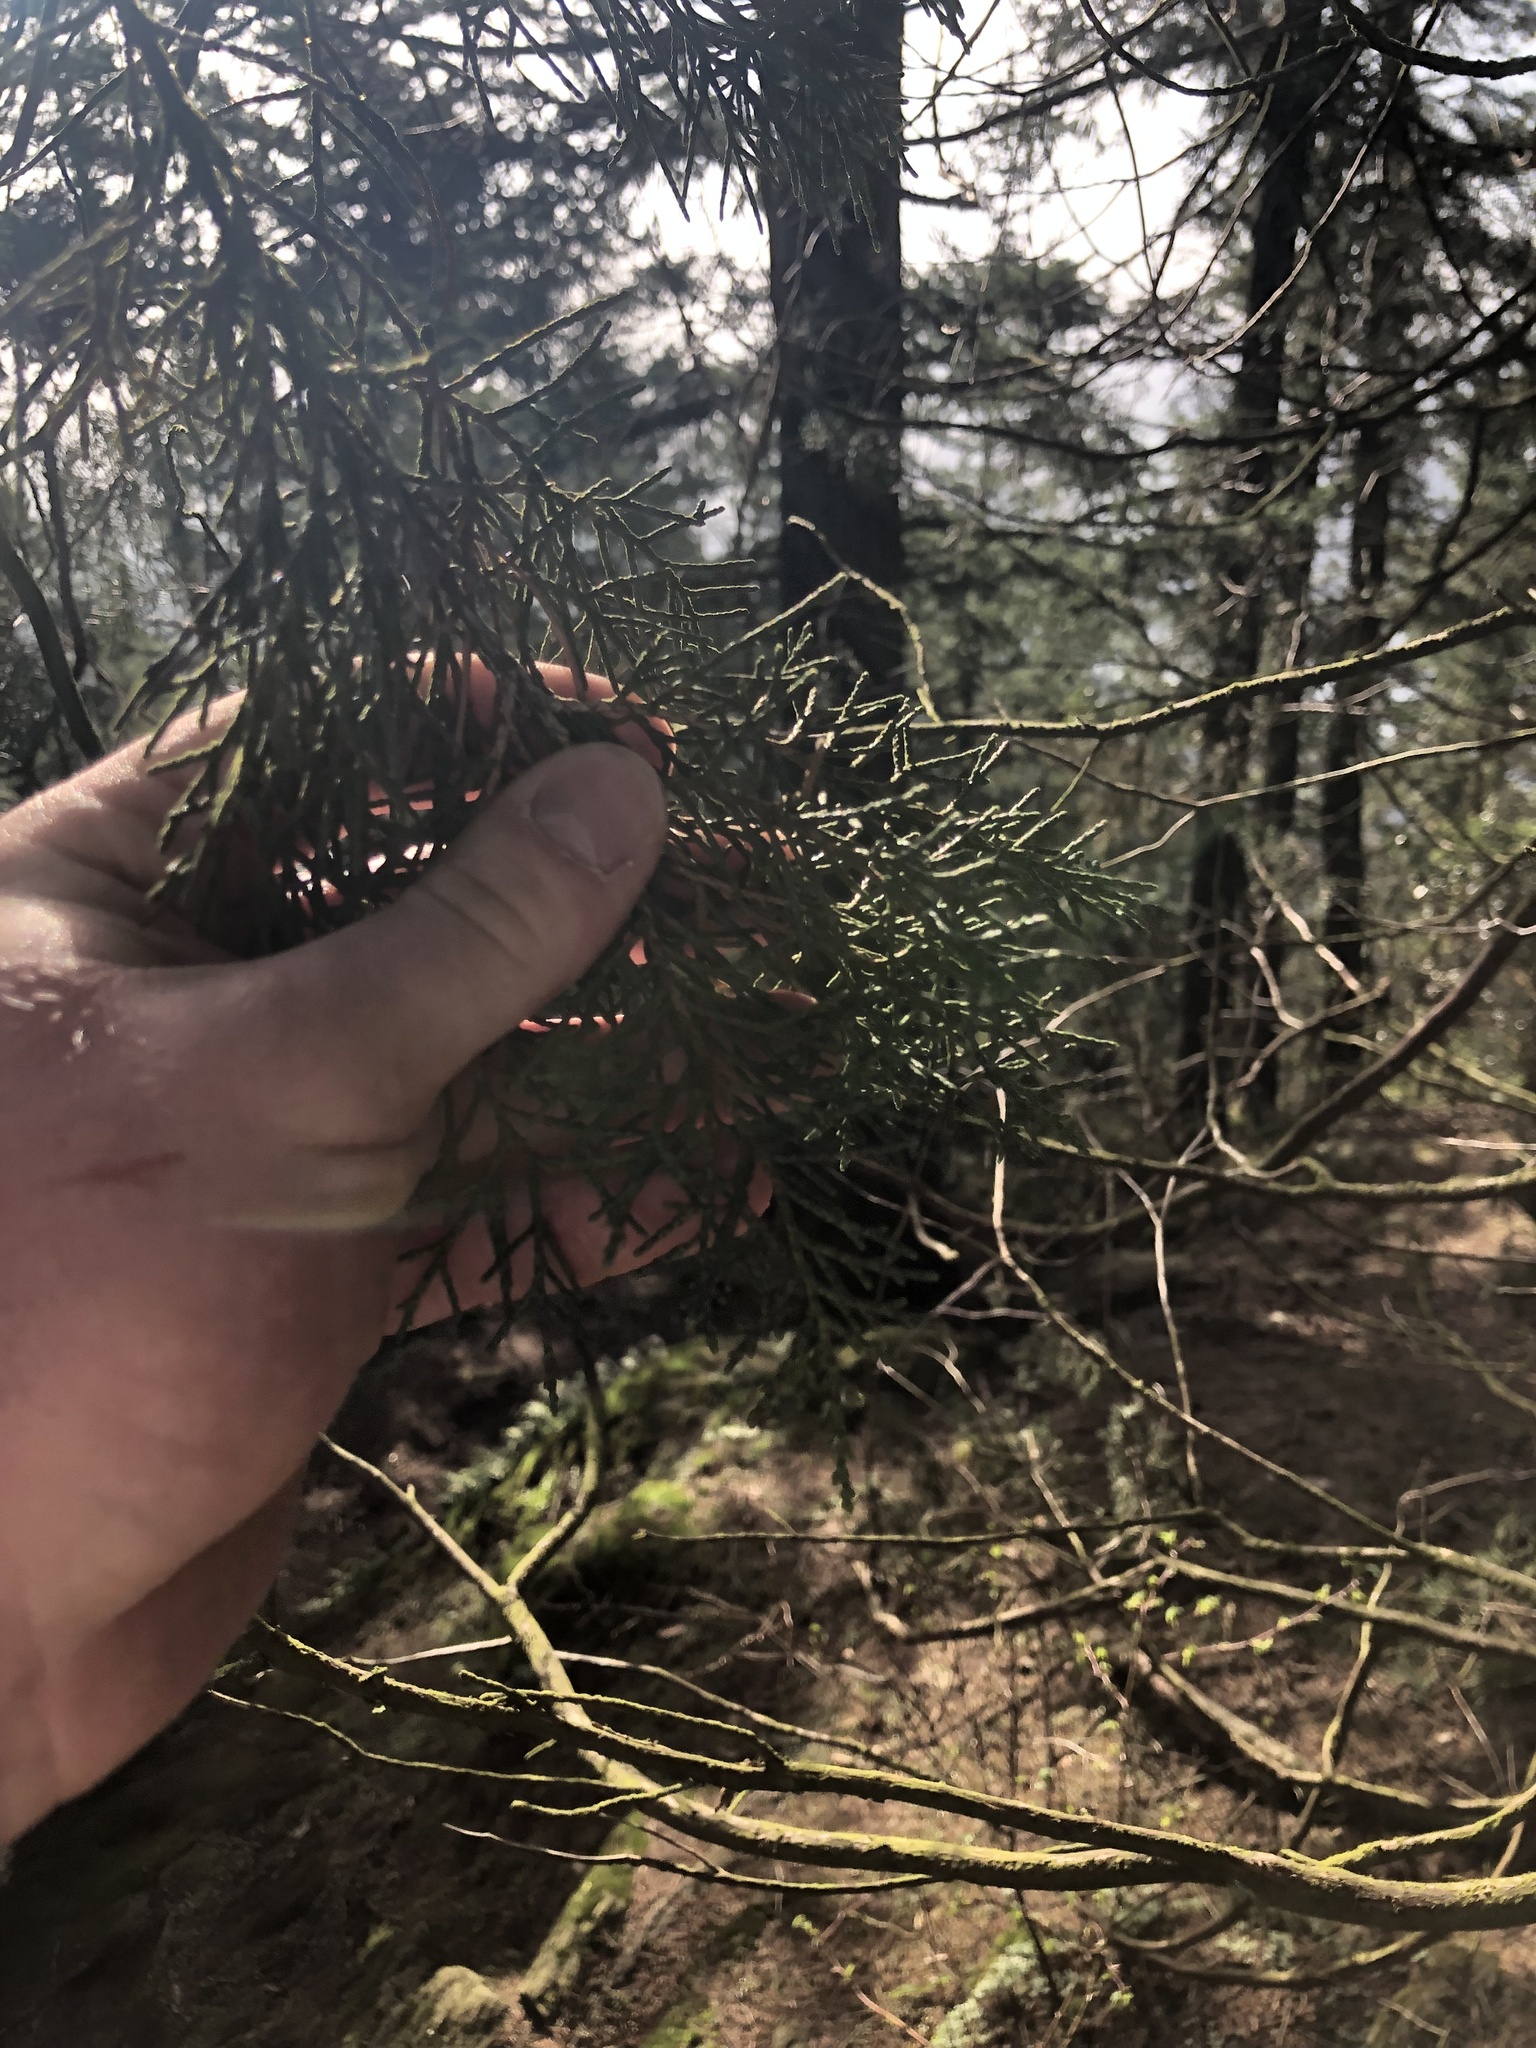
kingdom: Plantae
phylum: Tracheophyta
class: Pinopsida
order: Pinales
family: Cupressaceae
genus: Juniperus
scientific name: Juniperus scopulorum
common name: Rocky mountain juniper
